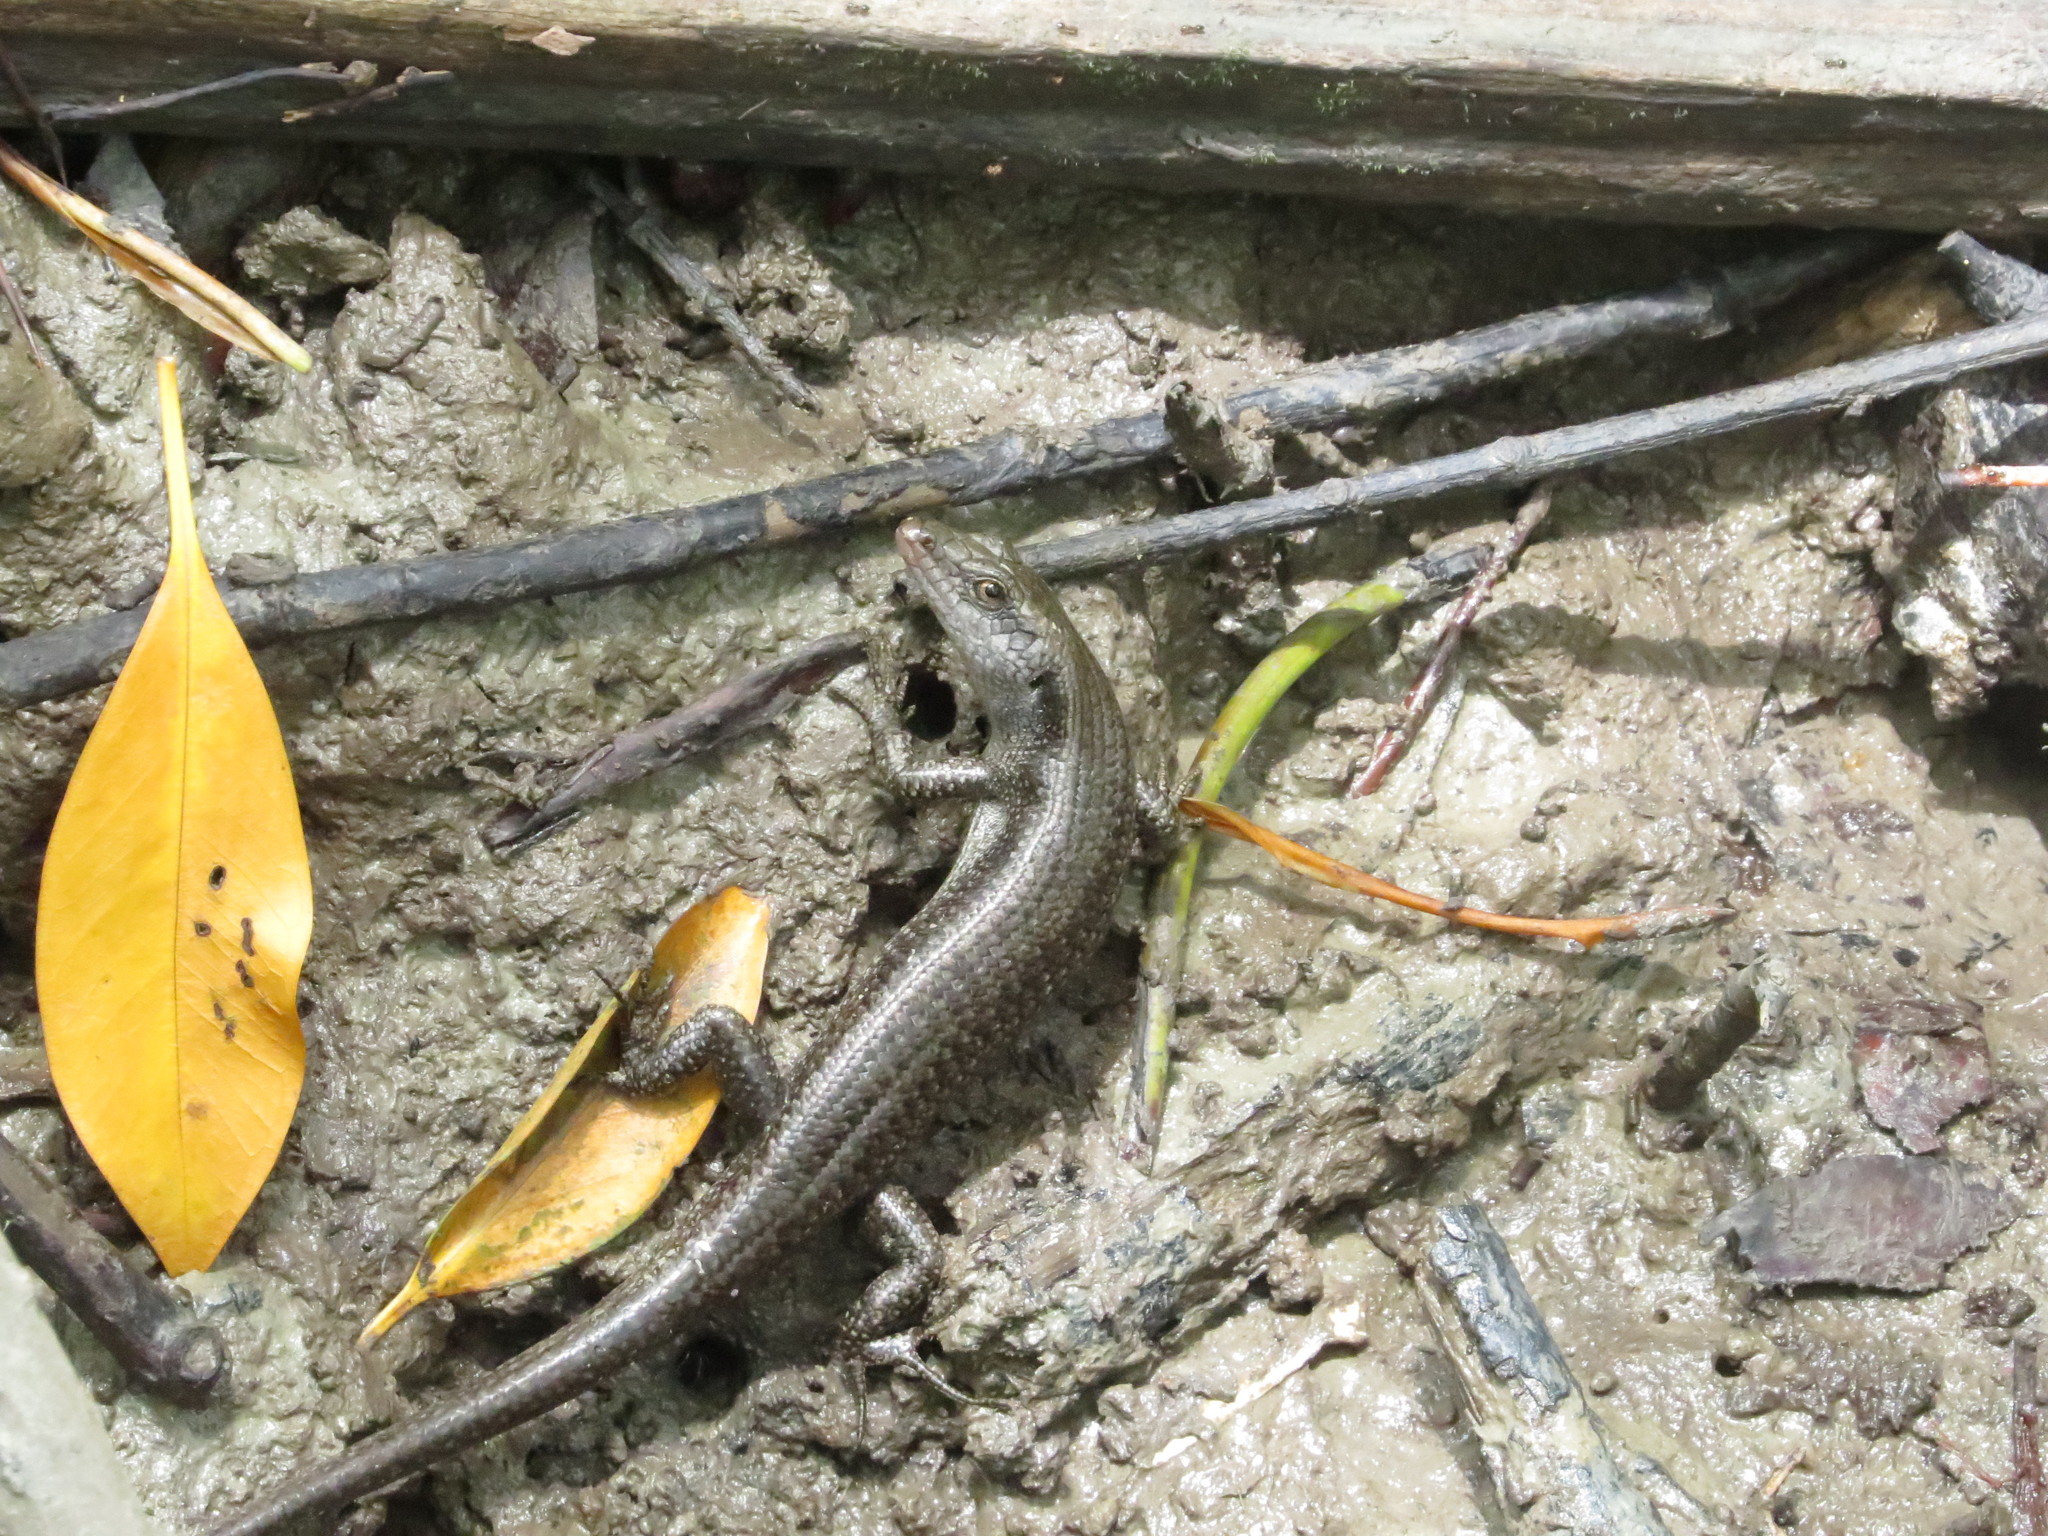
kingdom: Animalia
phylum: Chordata
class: Squamata
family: Scincidae
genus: Emoia
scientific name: Emoia atrocostata
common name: Littoral skink
